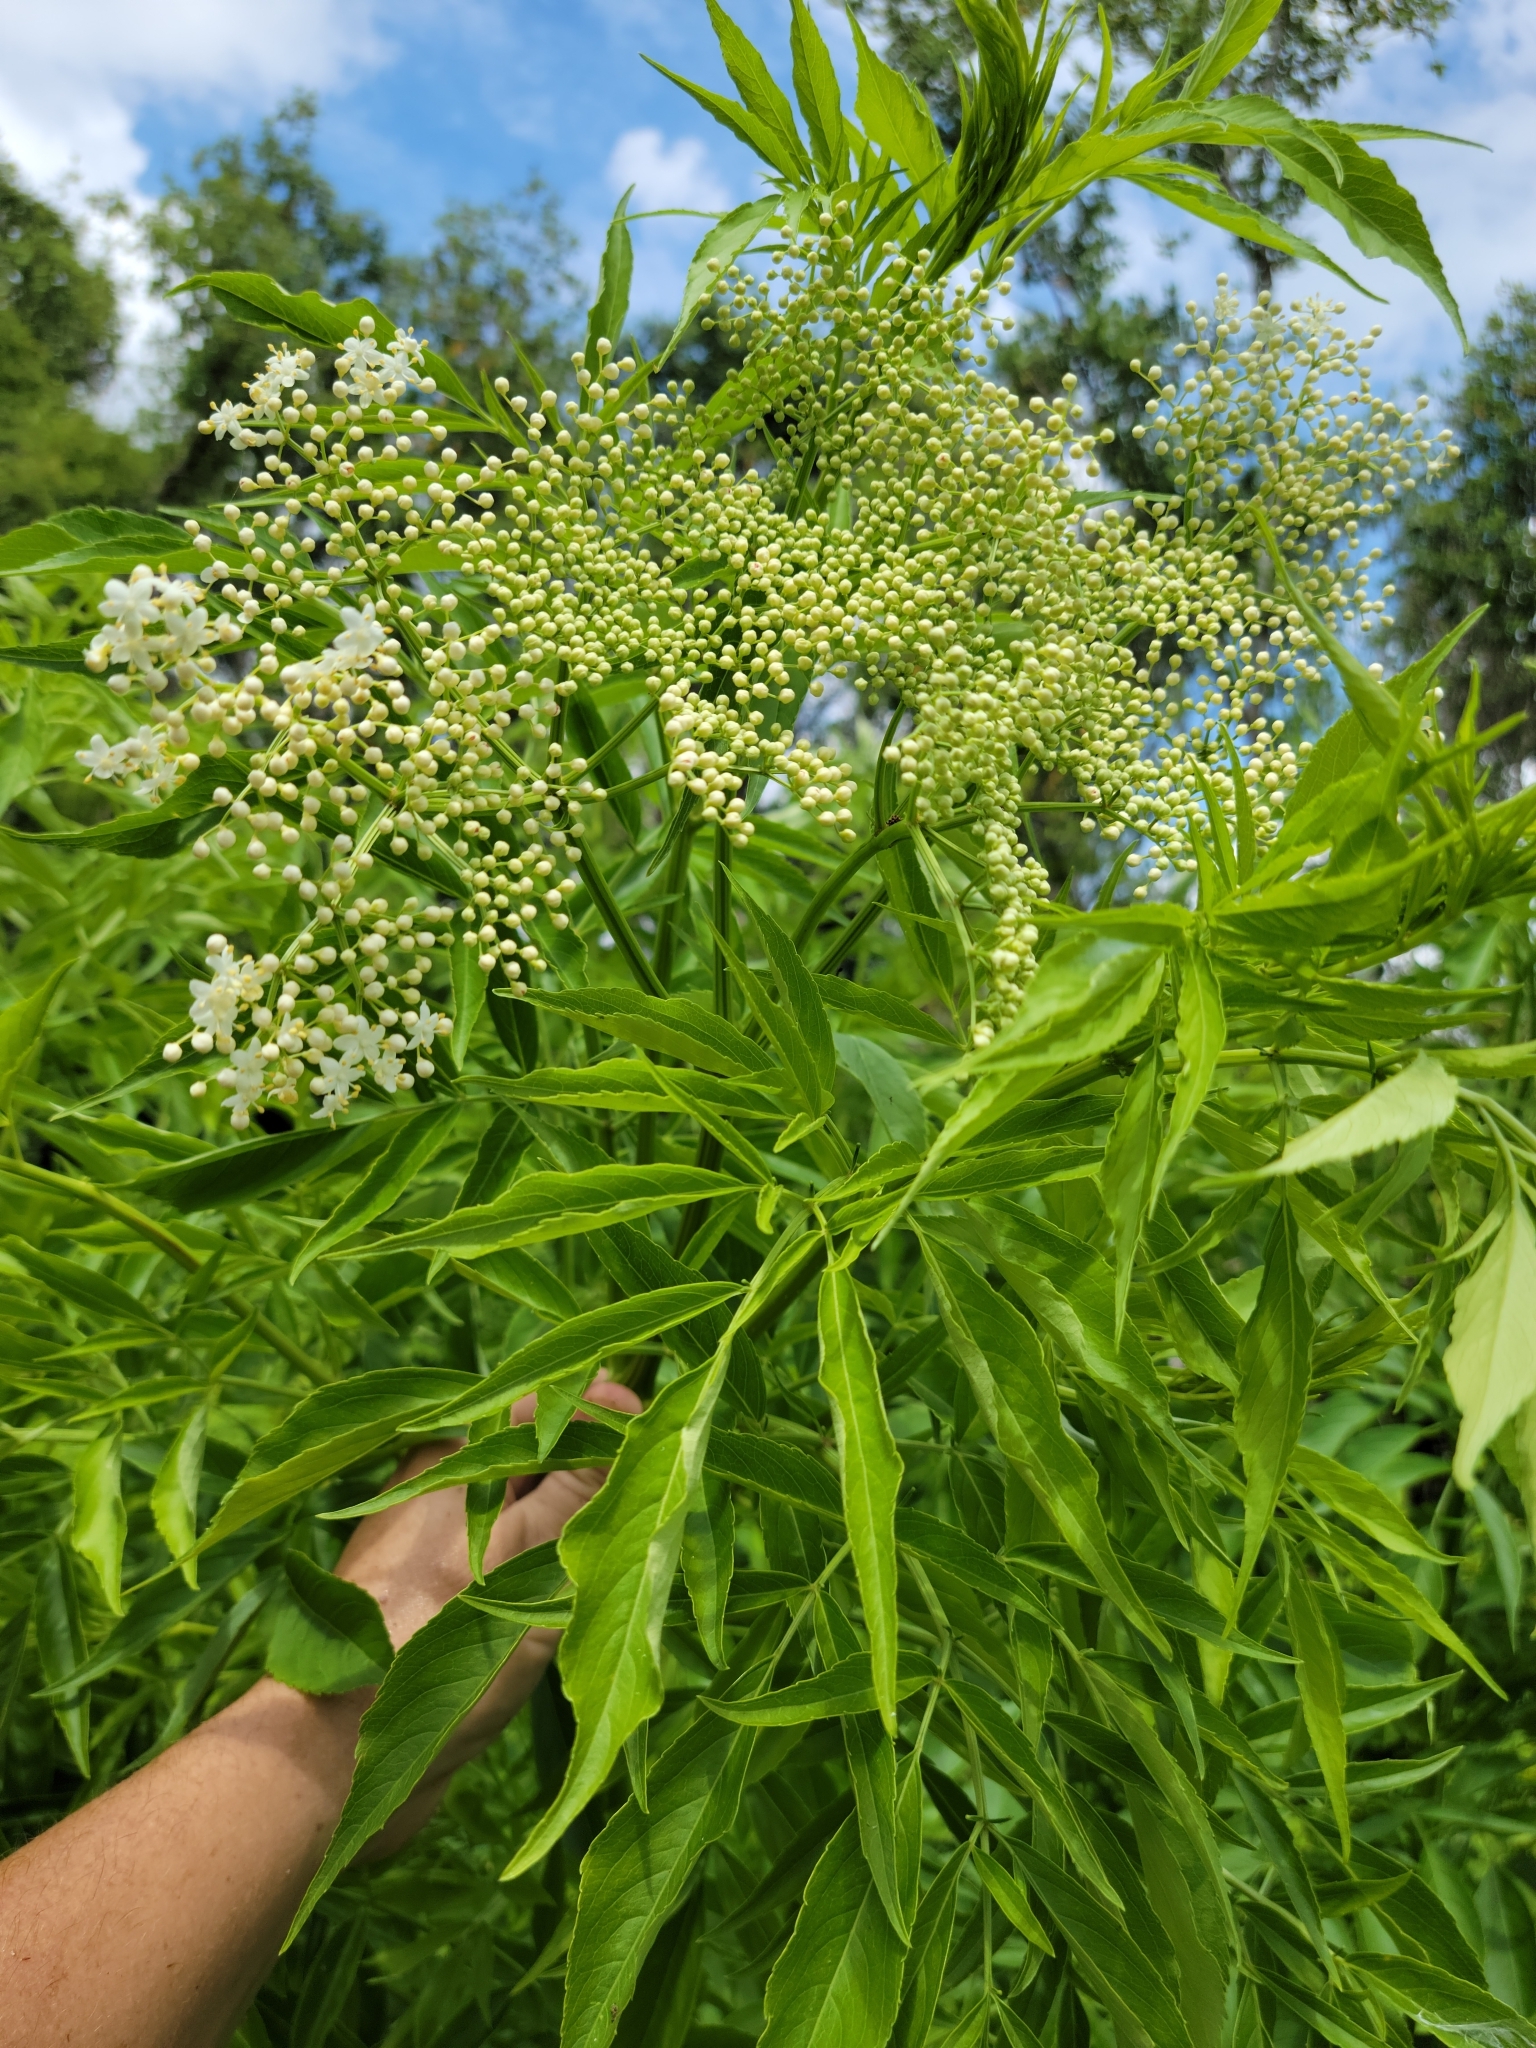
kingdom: Plantae
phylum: Tracheophyta
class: Magnoliopsida
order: Dipsacales
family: Viburnaceae
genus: Sambucus
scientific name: Sambucus canadensis
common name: American elder
